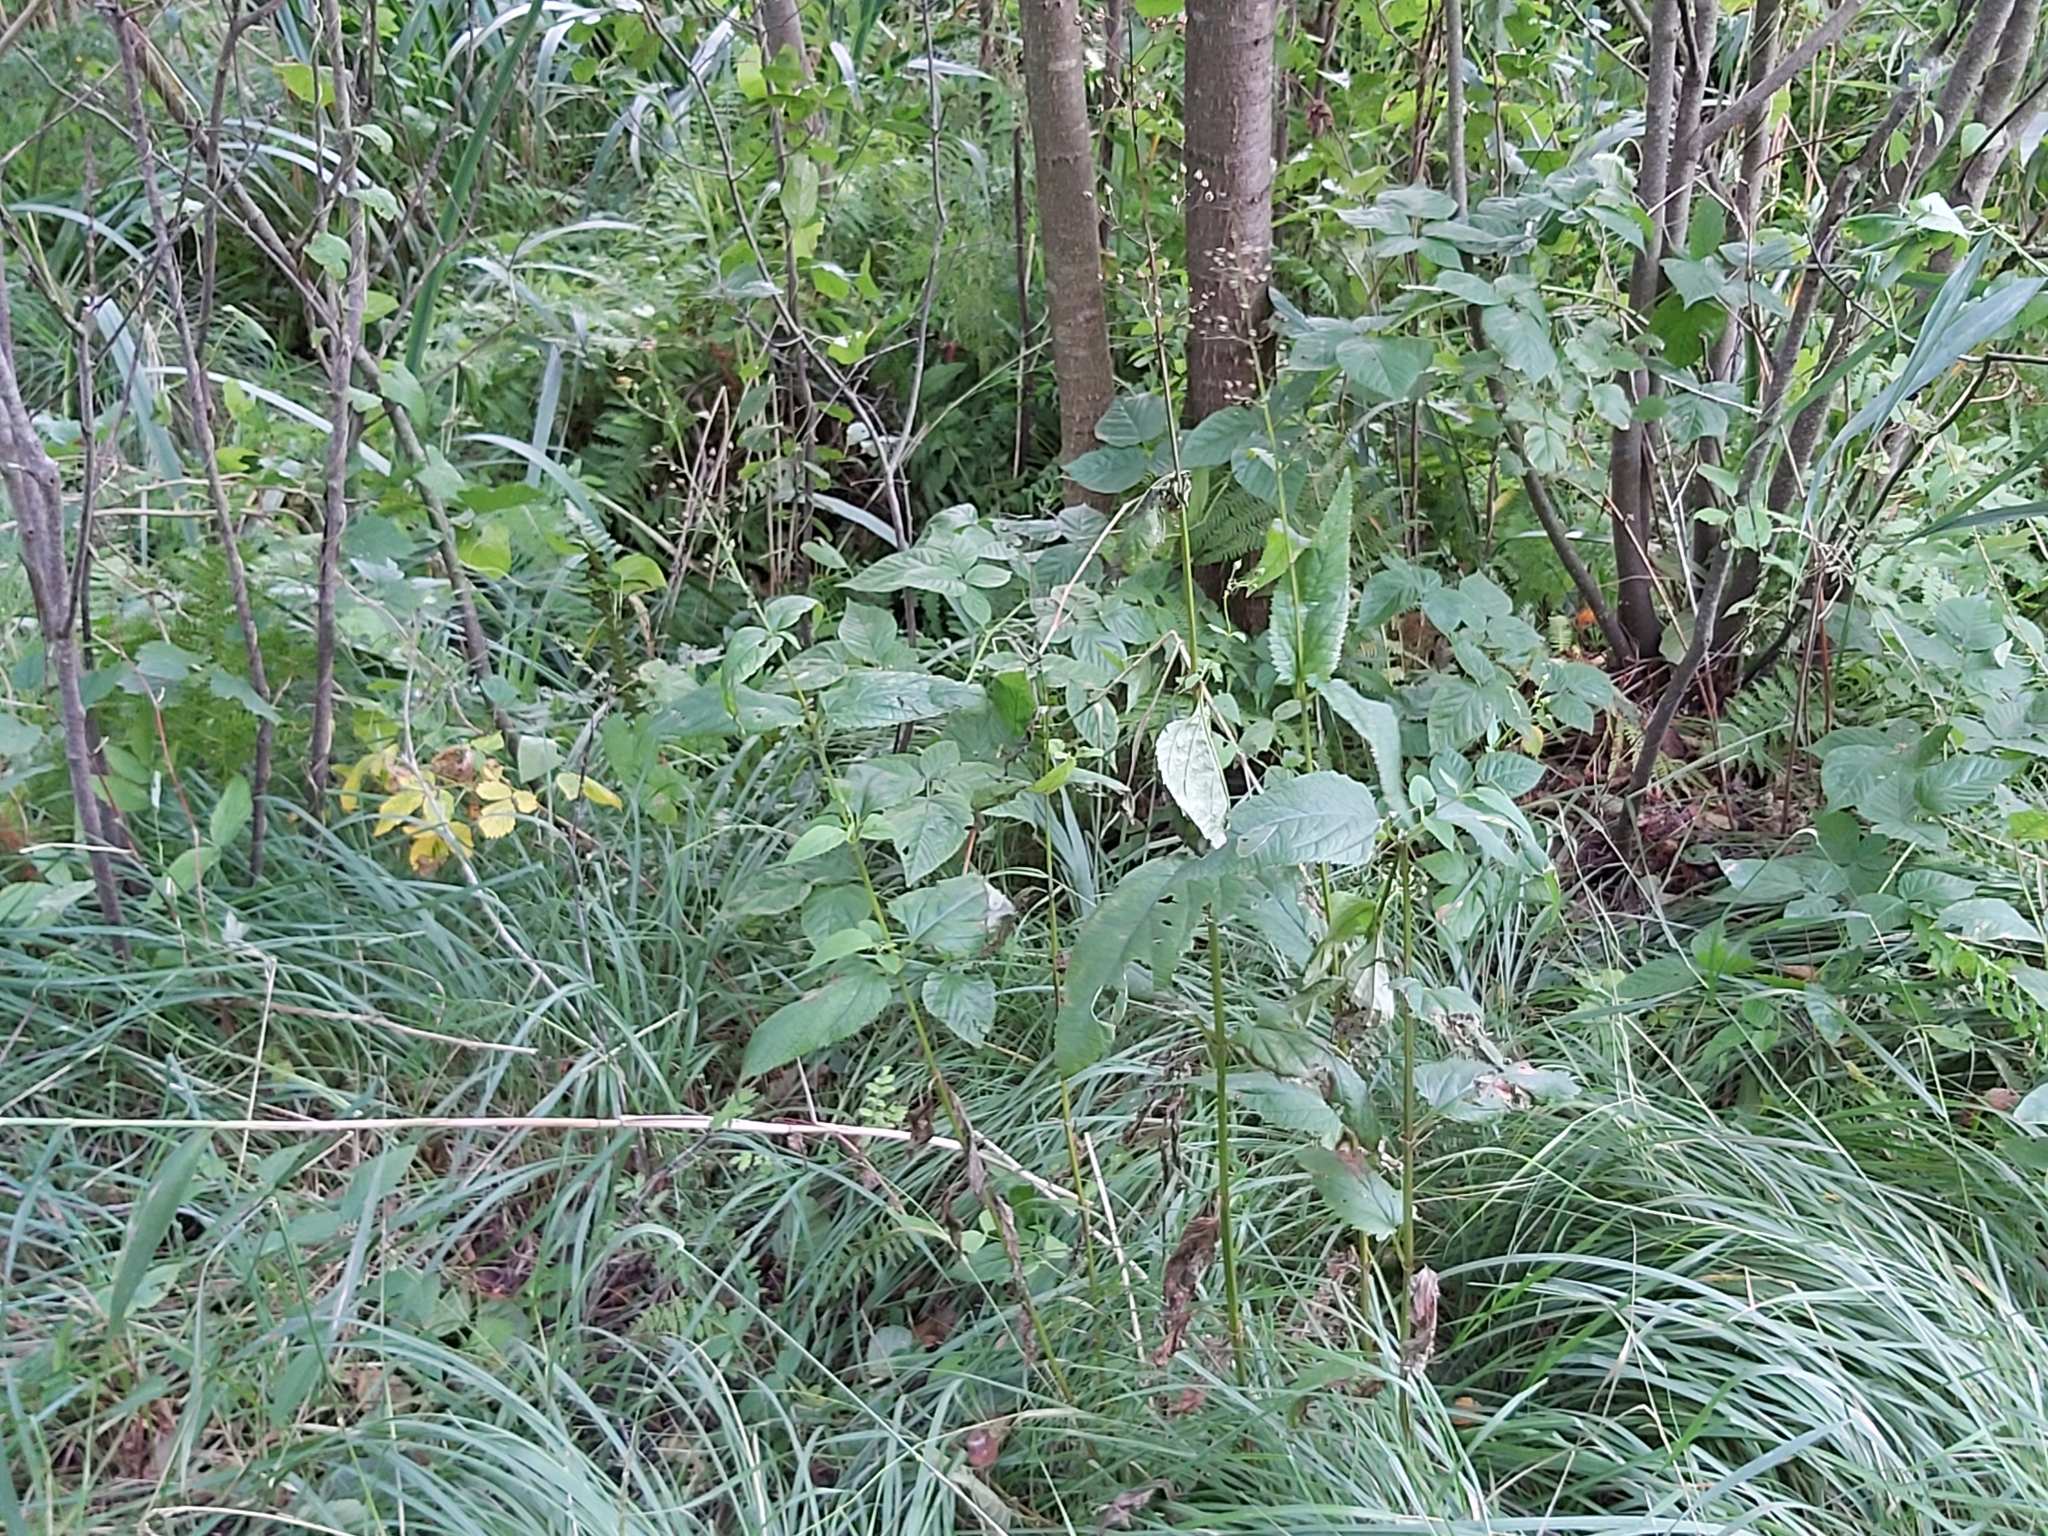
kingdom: Plantae
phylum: Tracheophyta
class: Magnoliopsida
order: Lamiales
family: Scrophulariaceae
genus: Scrophularia
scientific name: Scrophularia nodosa
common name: Common figwort
